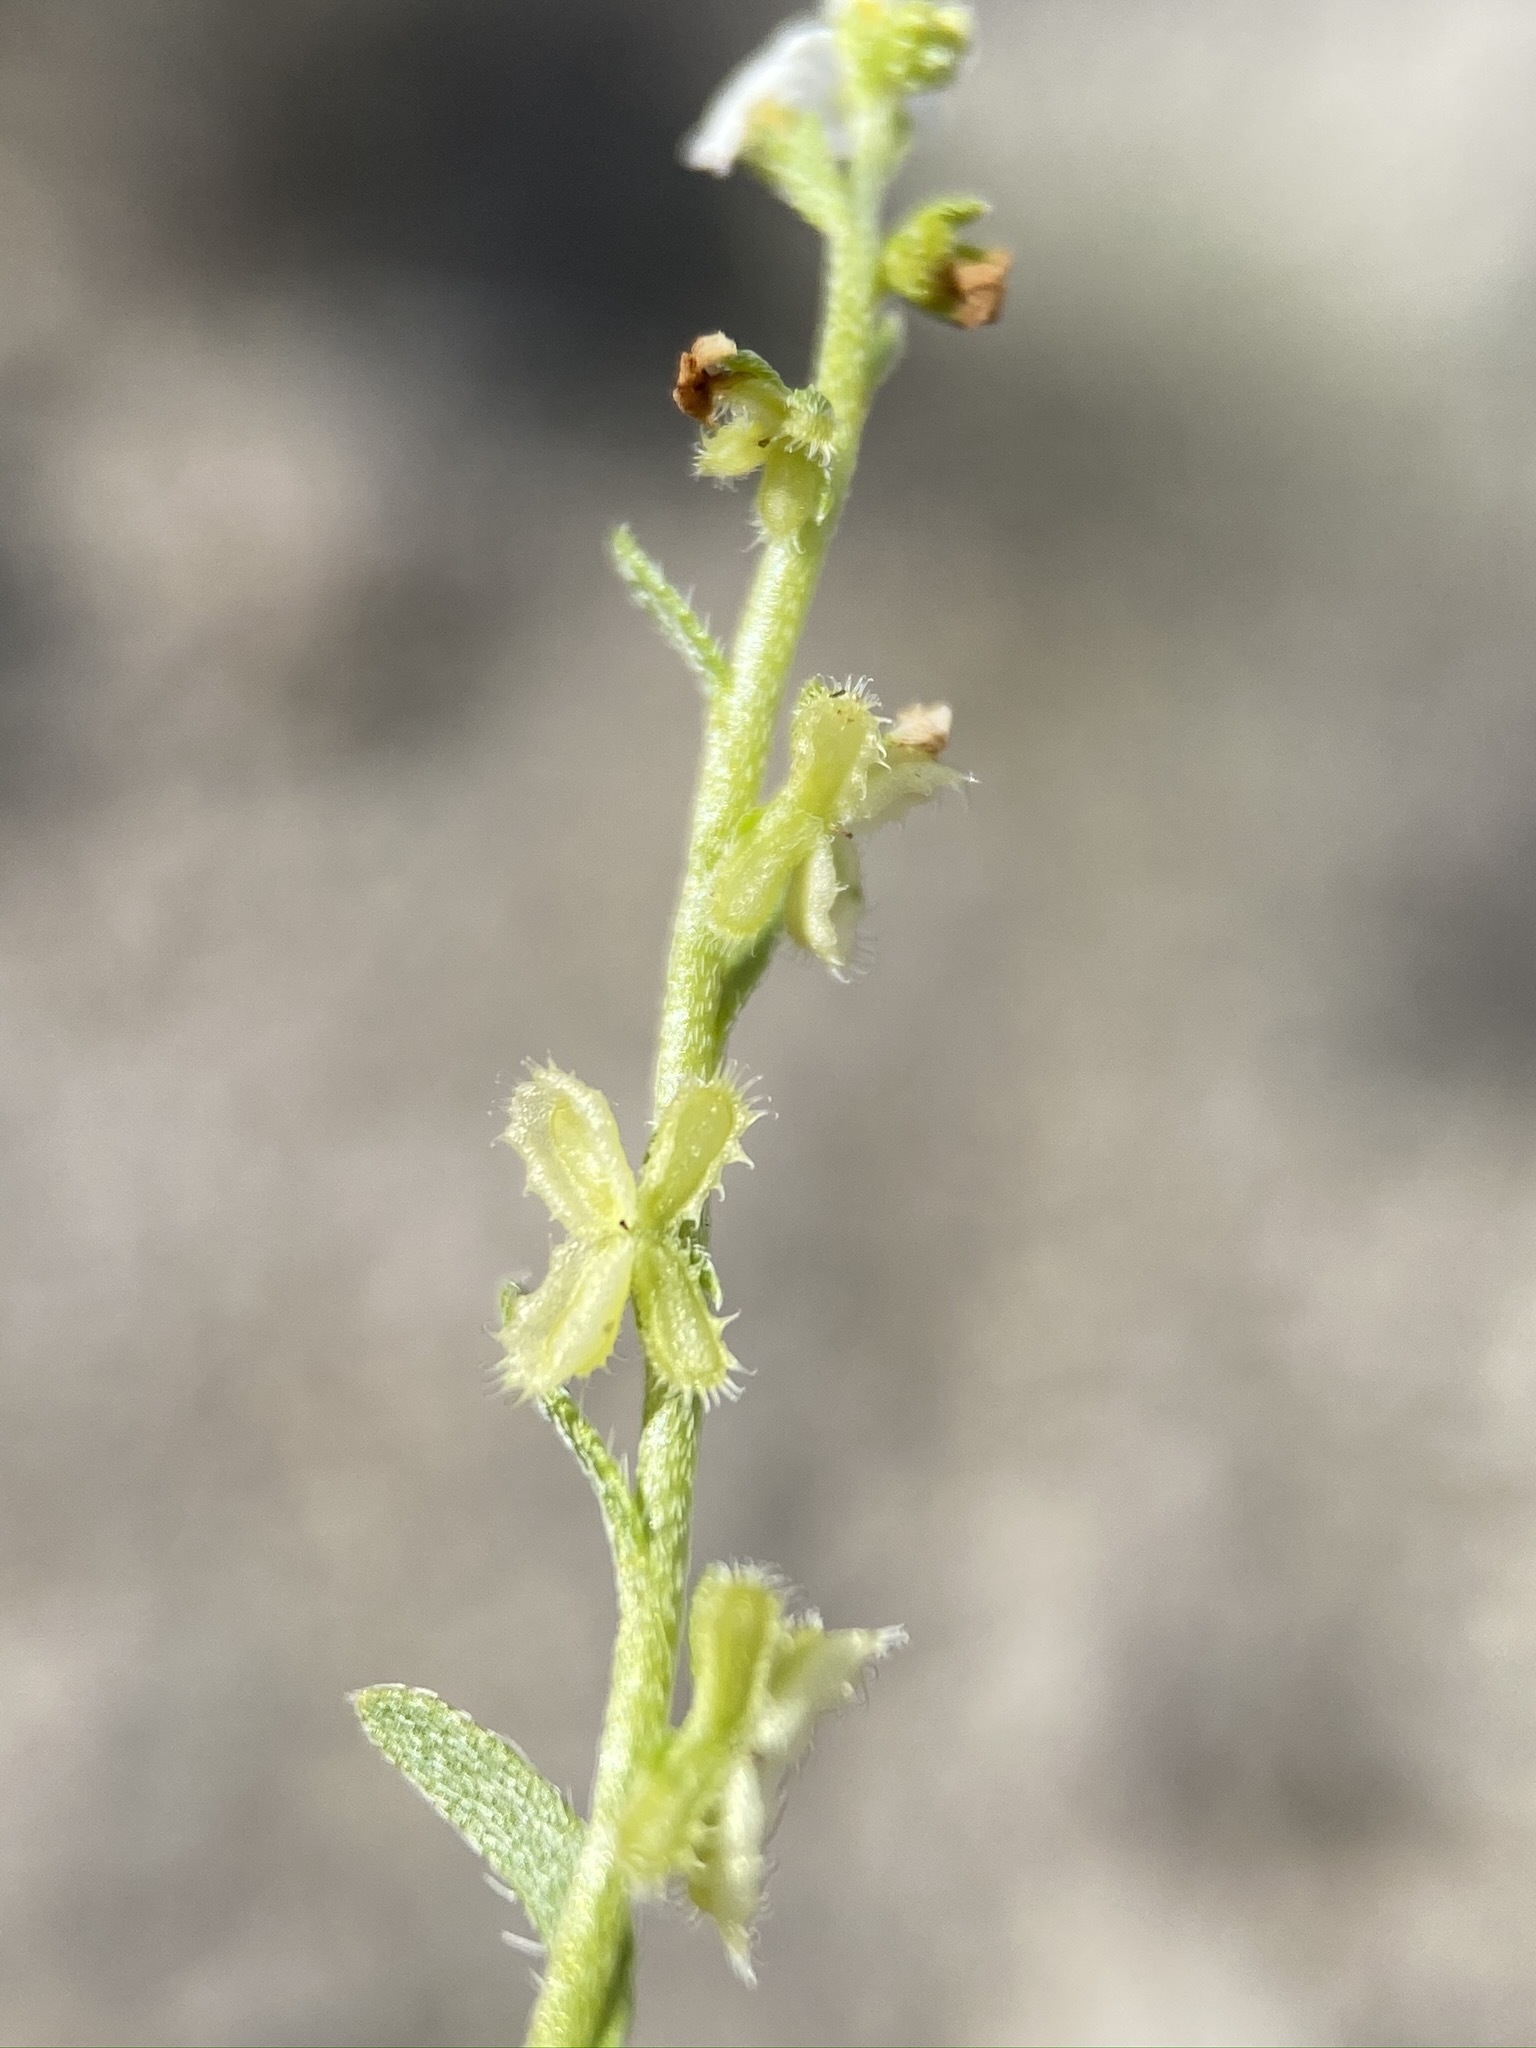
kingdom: Plantae
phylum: Tracheophyta
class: Magnoliopsida
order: Boraginales
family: Boraginaceae
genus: Pectocarya
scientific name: Pectocarya anisocarpa
